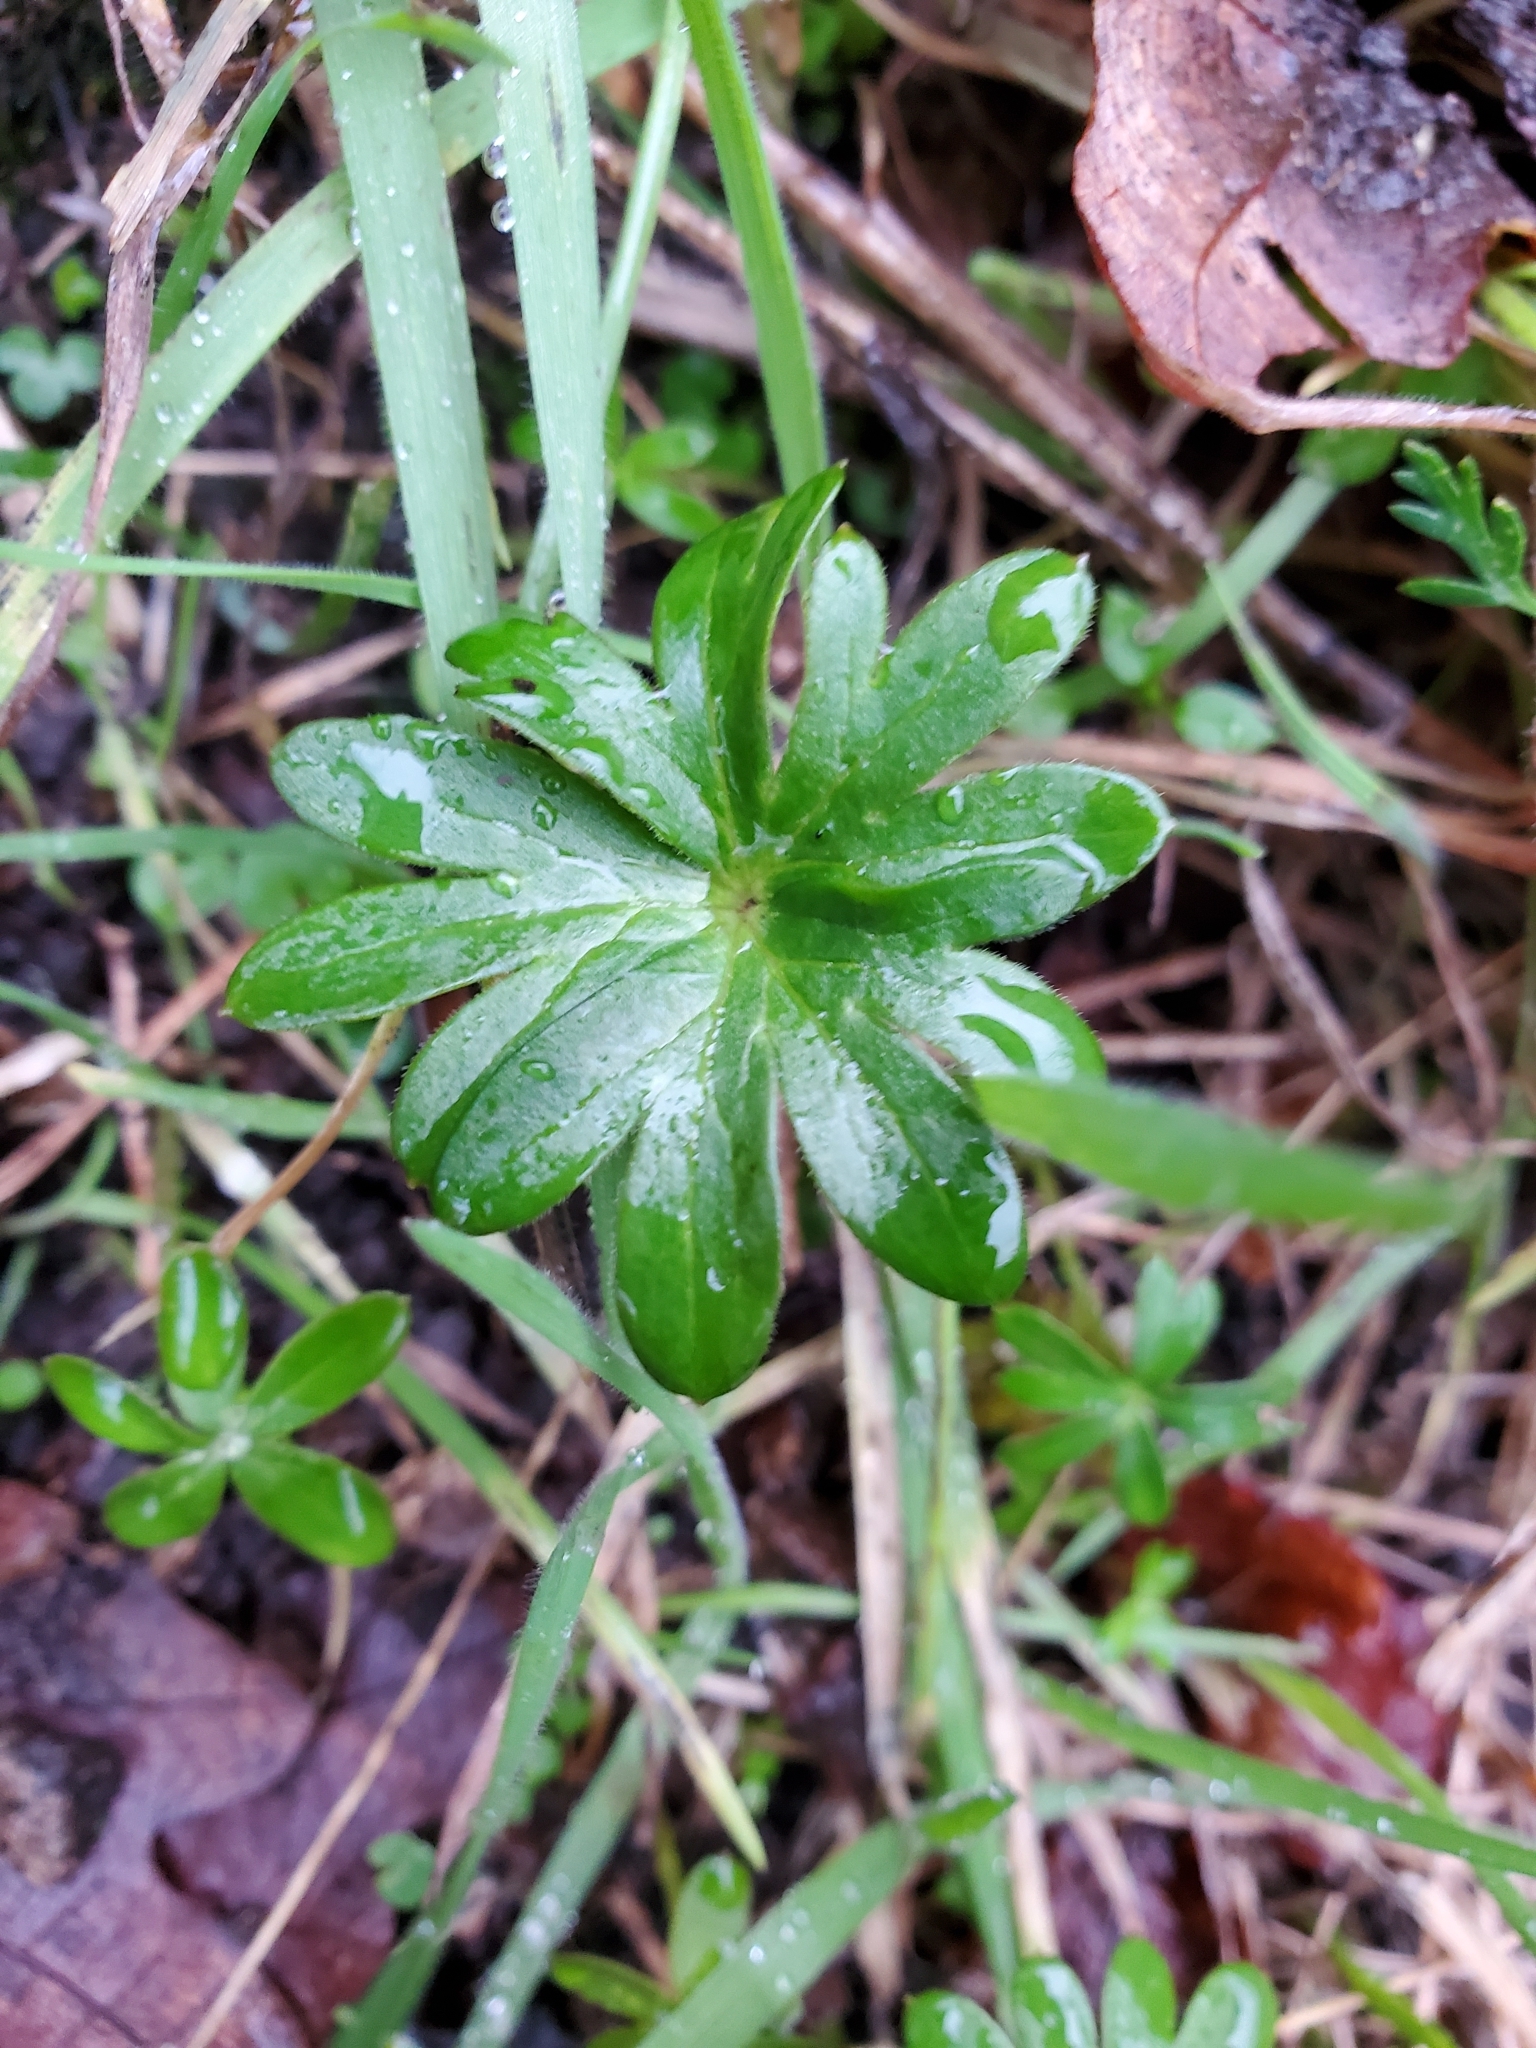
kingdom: Plantae
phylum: Tracheophyta
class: Magnoliopsida
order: Ranunculales
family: Ranunculaceae
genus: Delphinium
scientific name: Delphinium menziesii
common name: Menzies's larkspur
